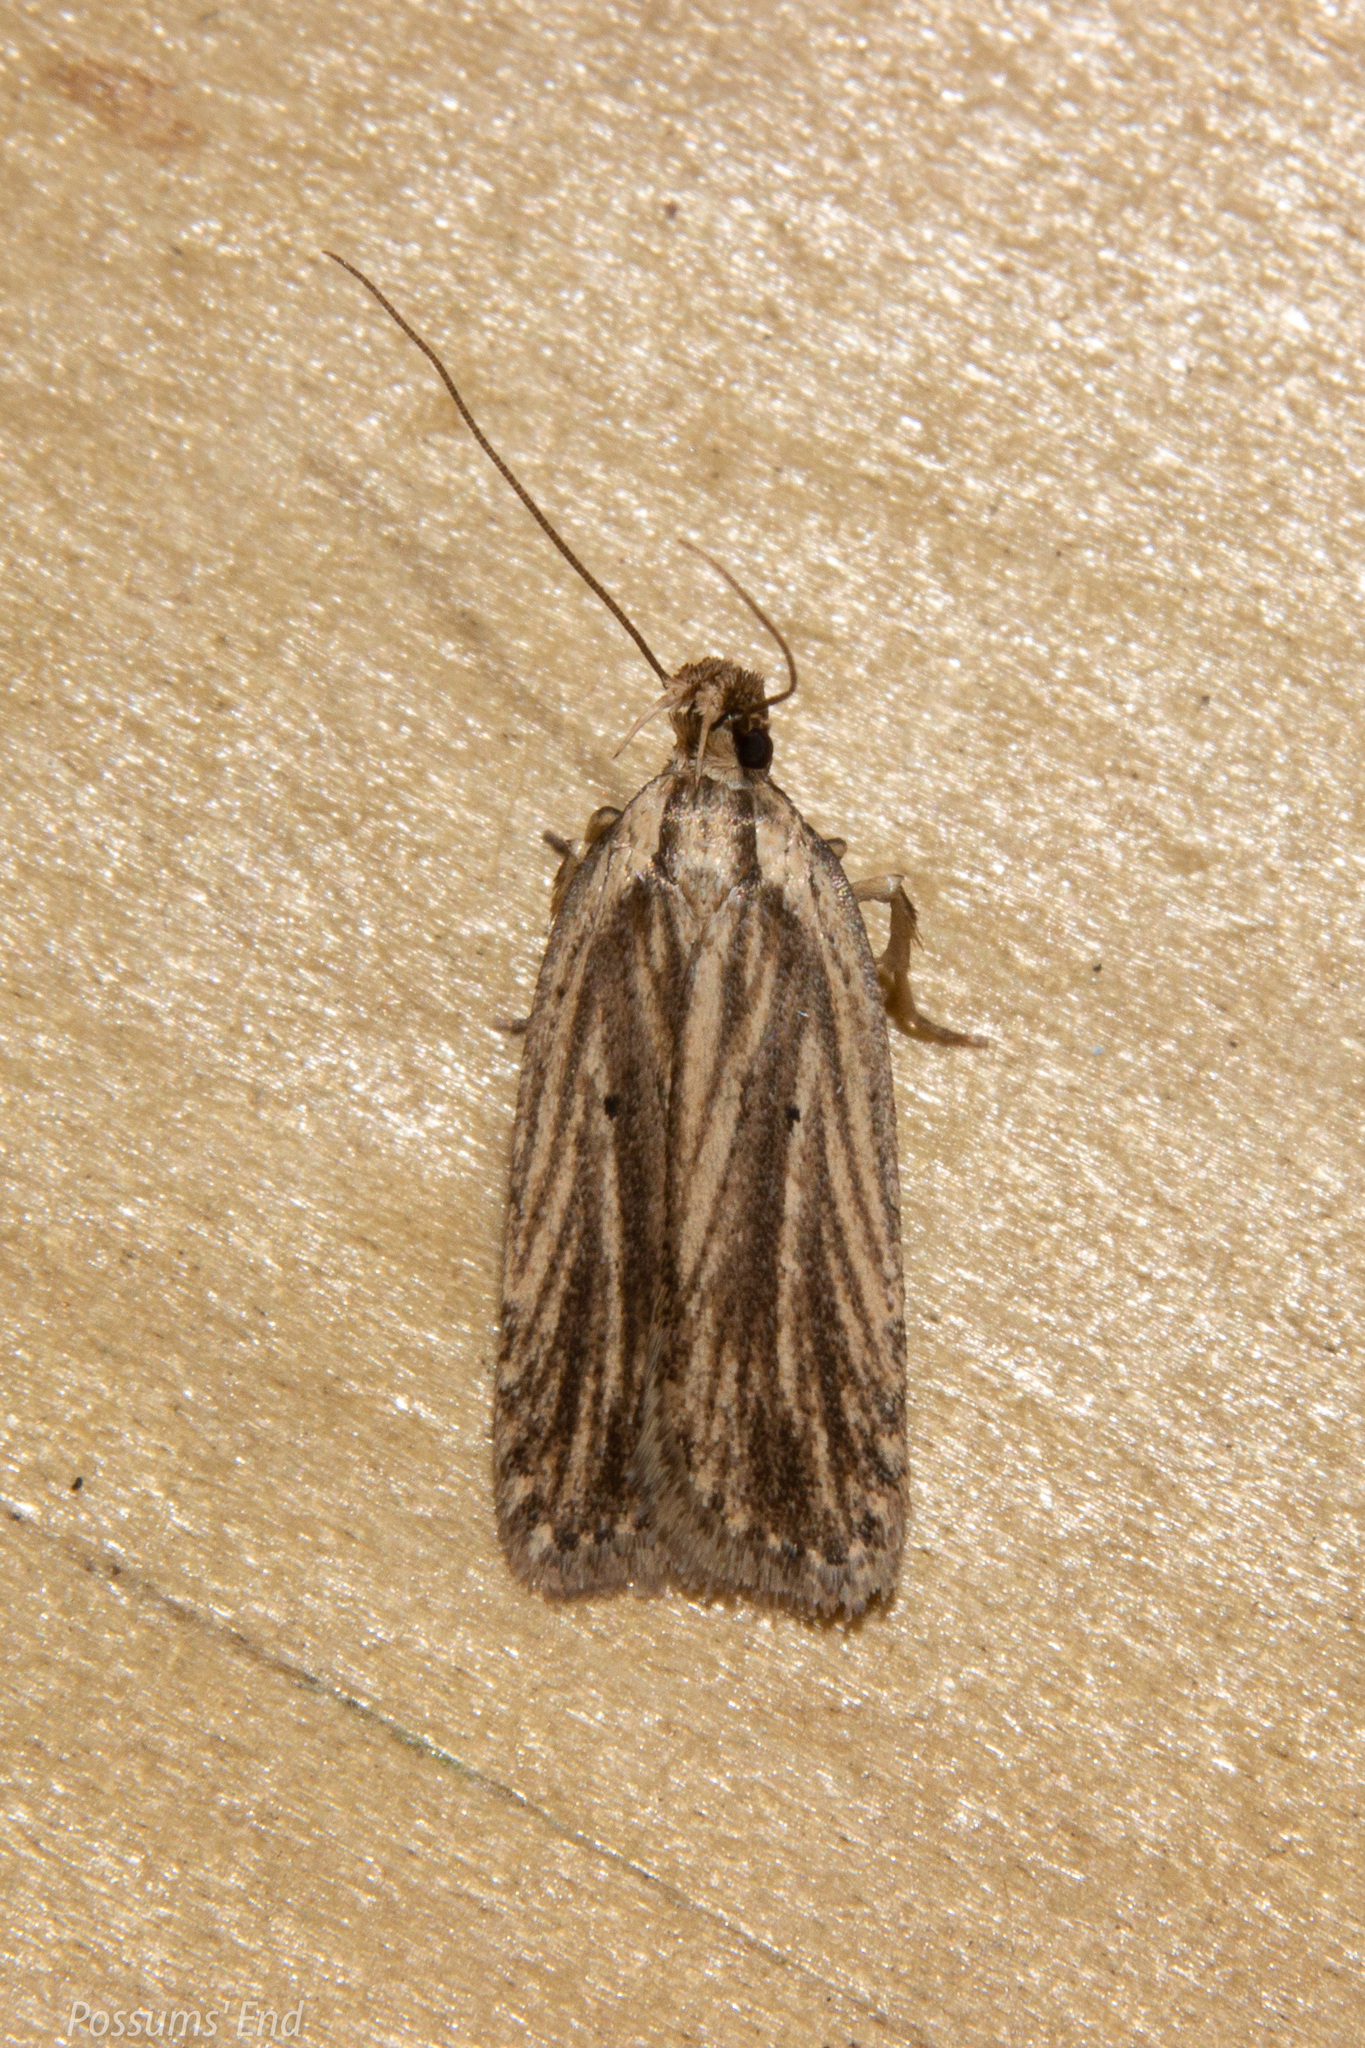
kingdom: Animalia
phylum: Arthropoda
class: Insecta
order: Lepidoptera
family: Depressariidae
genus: Agonopterix
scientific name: Agonopterix
